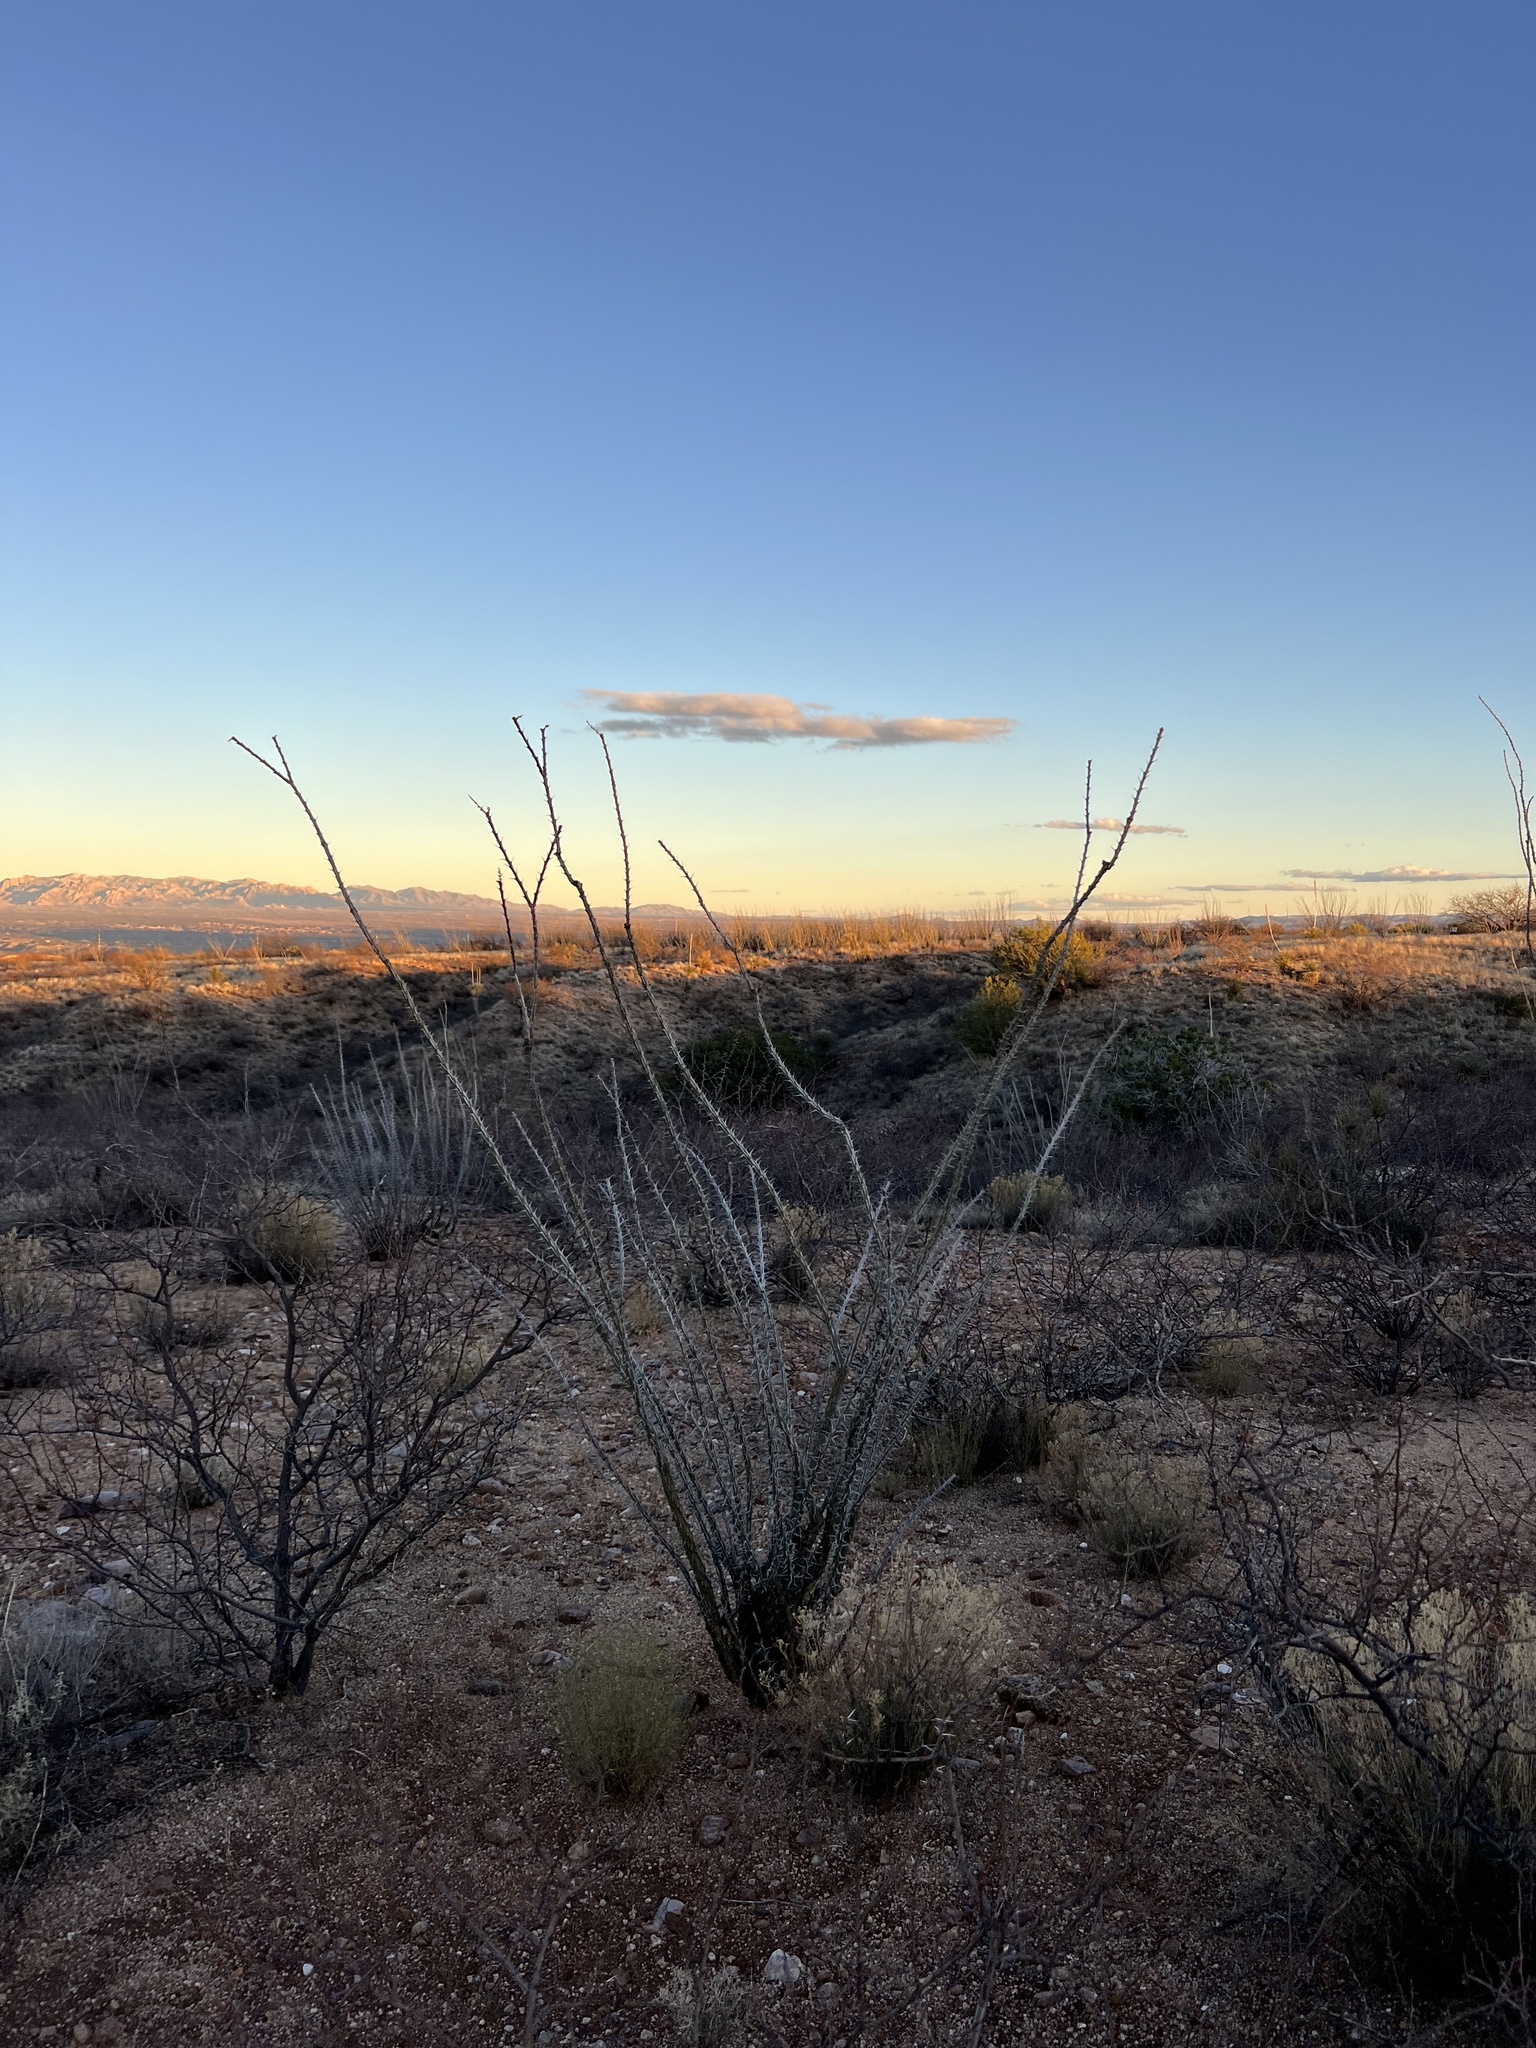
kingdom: Plantae
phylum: Tracheophyta
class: Magnoliopsida
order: Ericales
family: Fouquieriaceae
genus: Fouquieria
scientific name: Fouquieria splendens
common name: Vine-cactus
